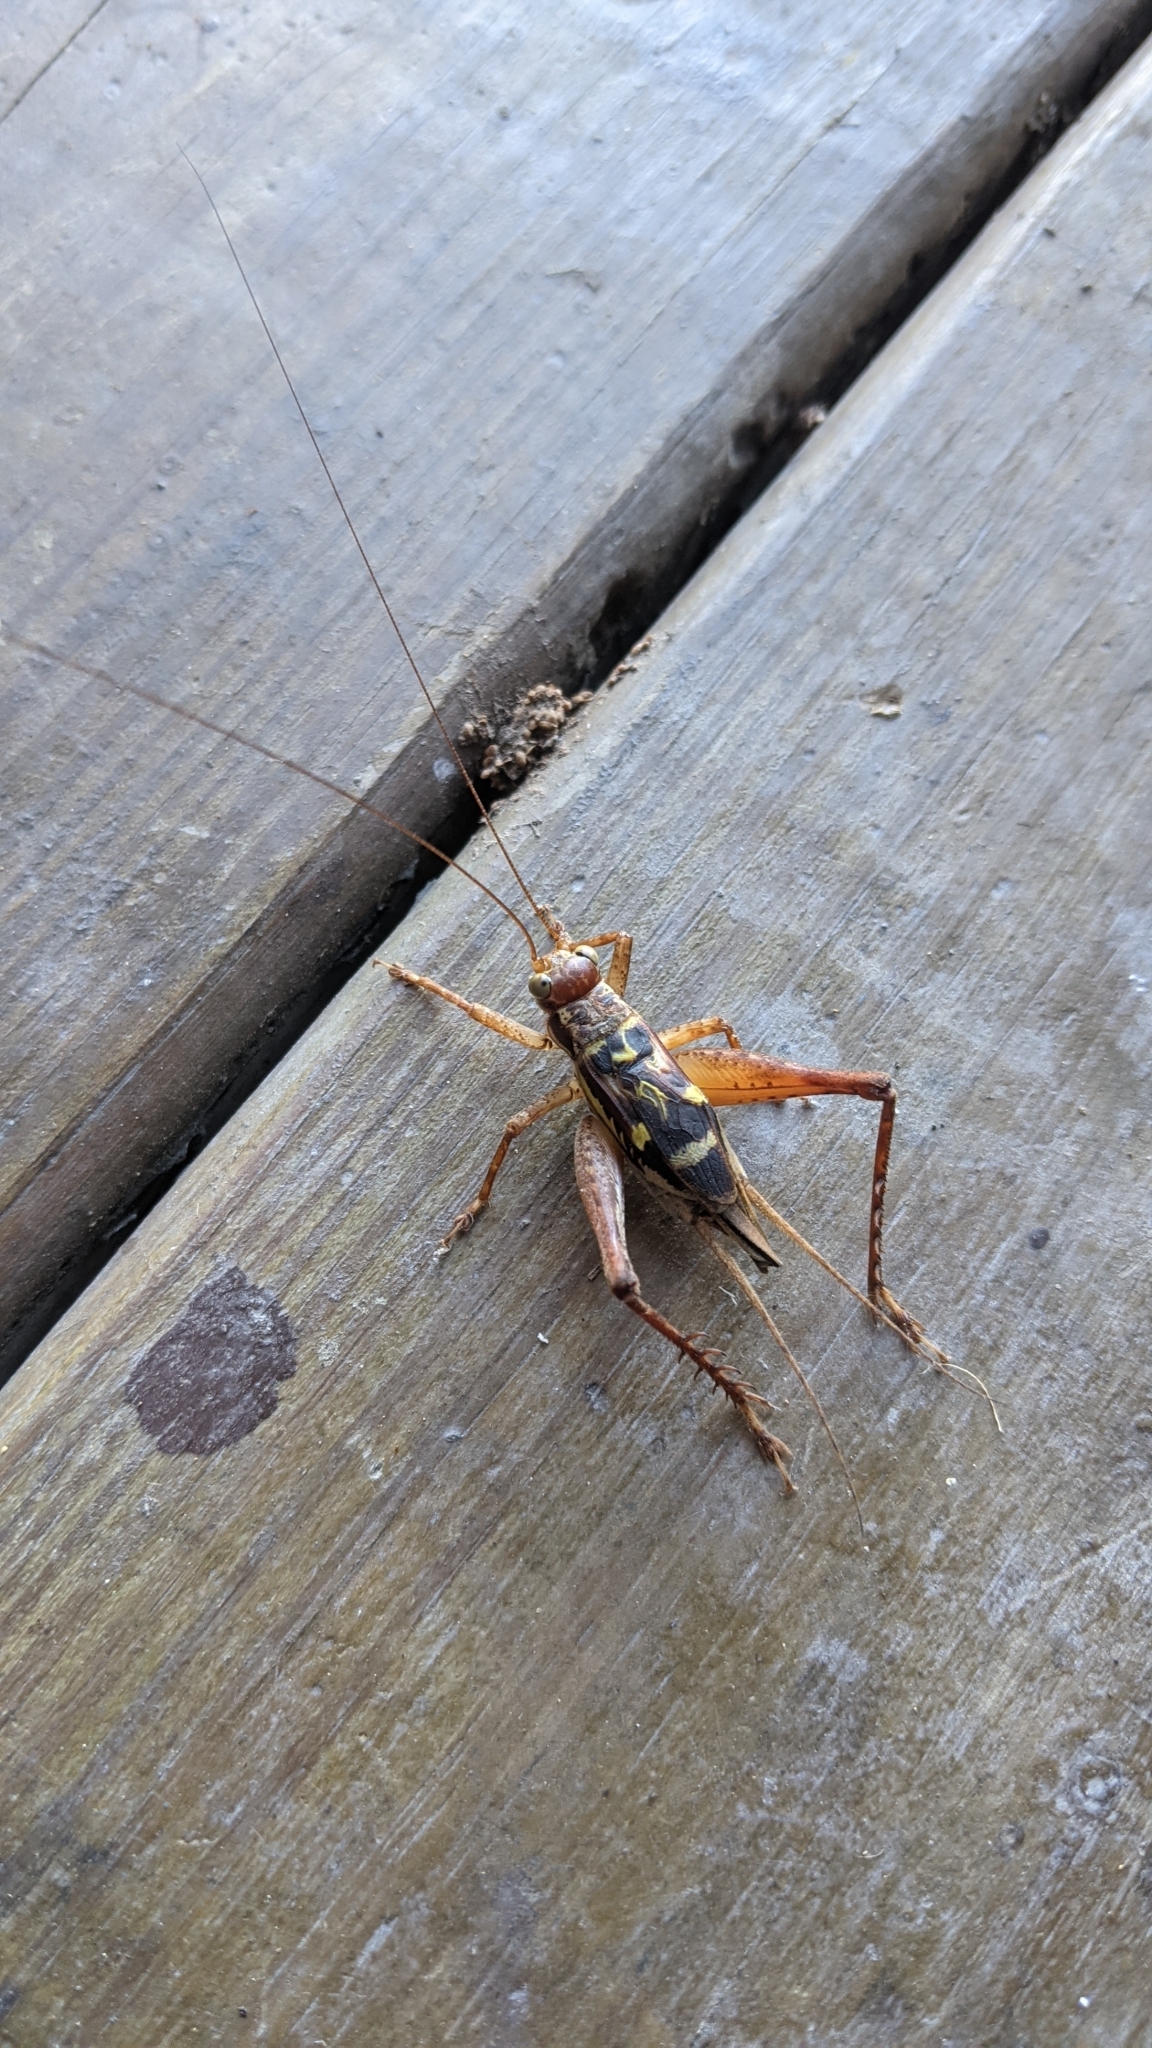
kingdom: Animalia
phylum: Arthropoda
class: Insecta
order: Orthoptera
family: Gryllidae
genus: Cardiodactylus
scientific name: Cardiodactylus guttulus
